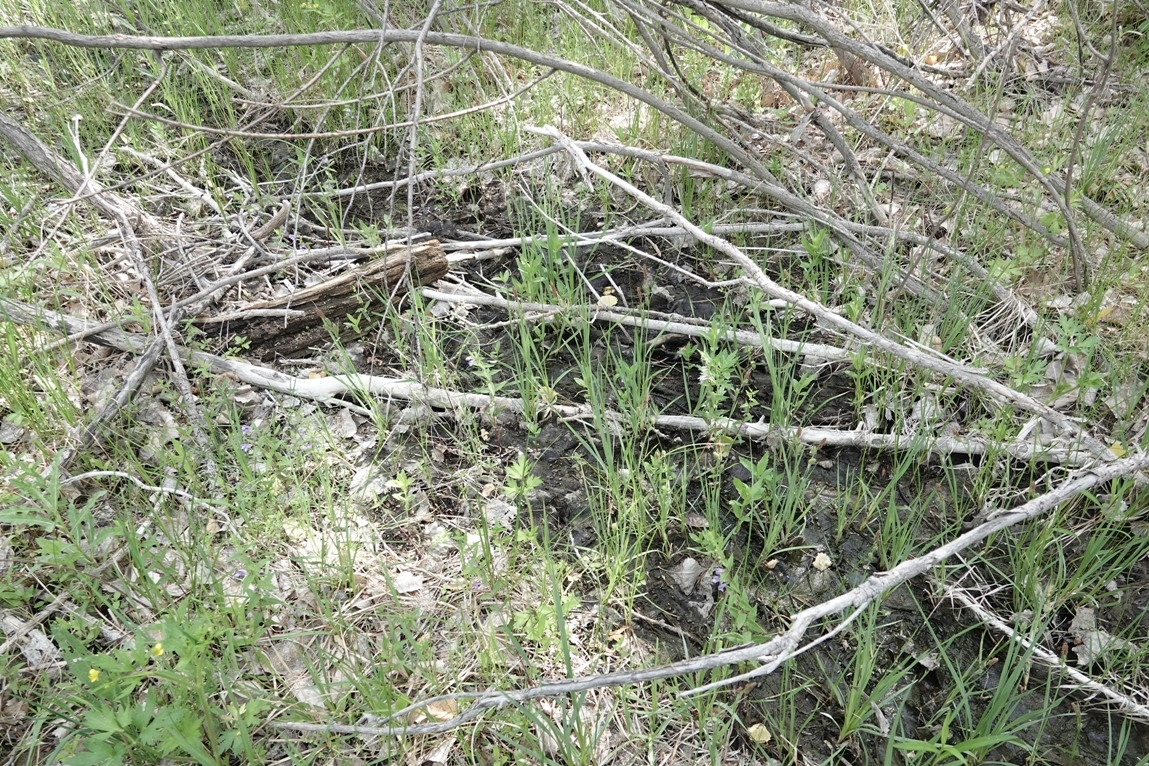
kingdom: Plantae
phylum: Tracheophyta
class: Magnoliopsida
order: Lamiales
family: Lamiaceae
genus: Scutellaria
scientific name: Scutellaria galericulata
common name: Skullcap
